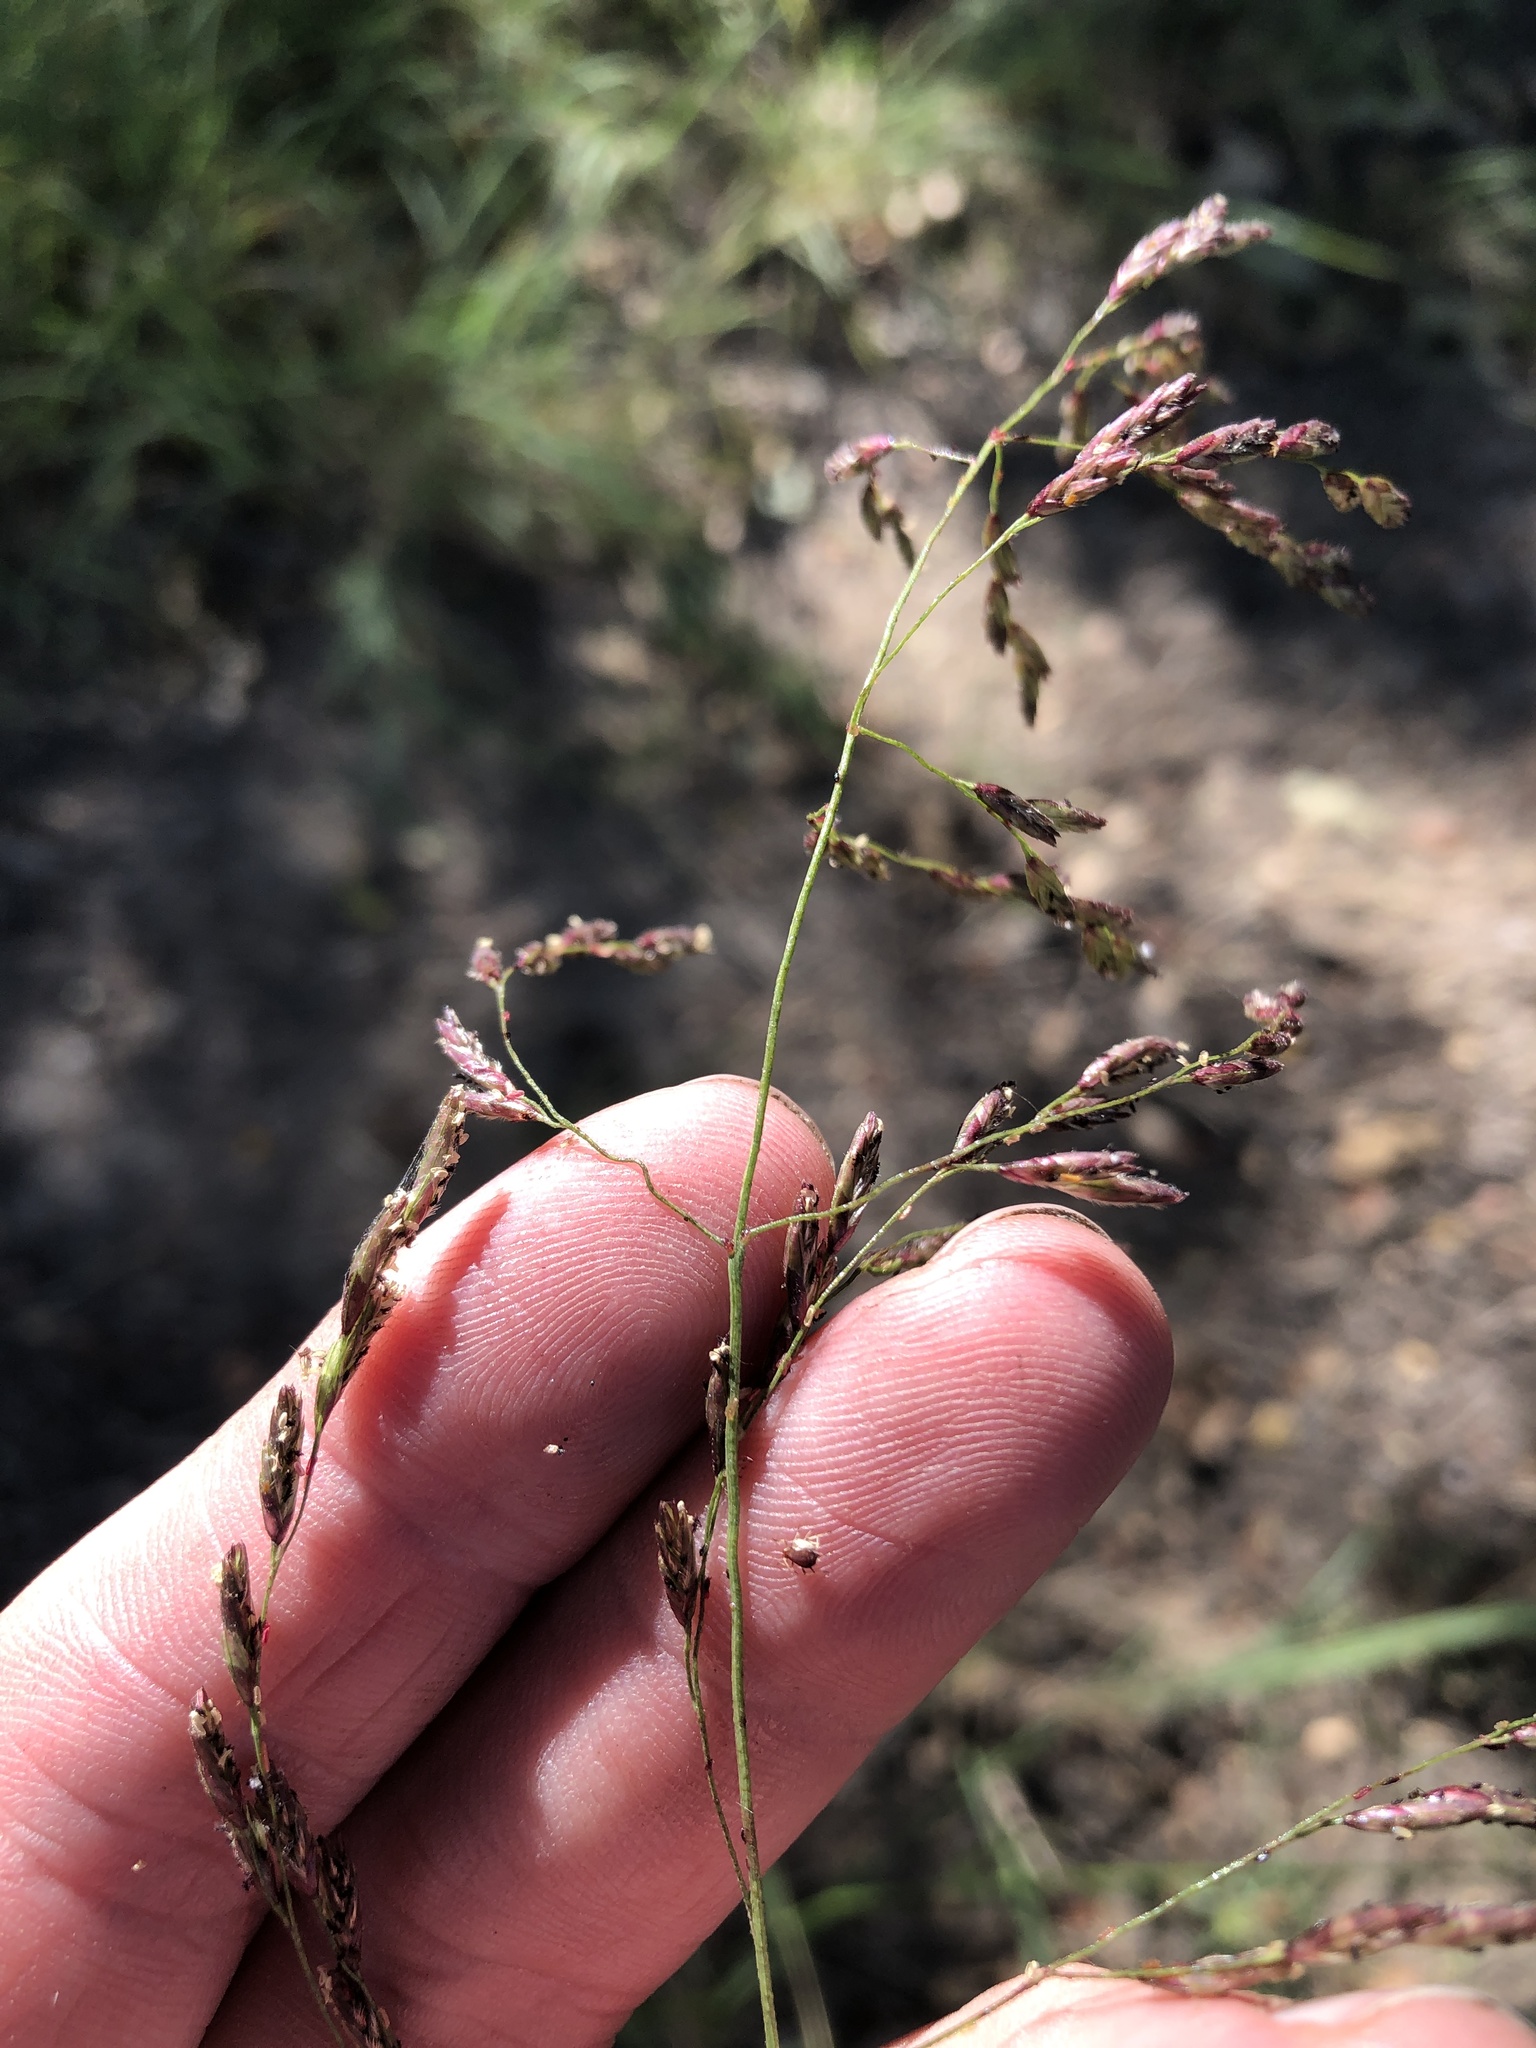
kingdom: Plantae
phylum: Tracheophyta
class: Liliopsida
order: Poales
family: Poaceae
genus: Tridens
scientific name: Tridens flavus
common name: Purpletop
